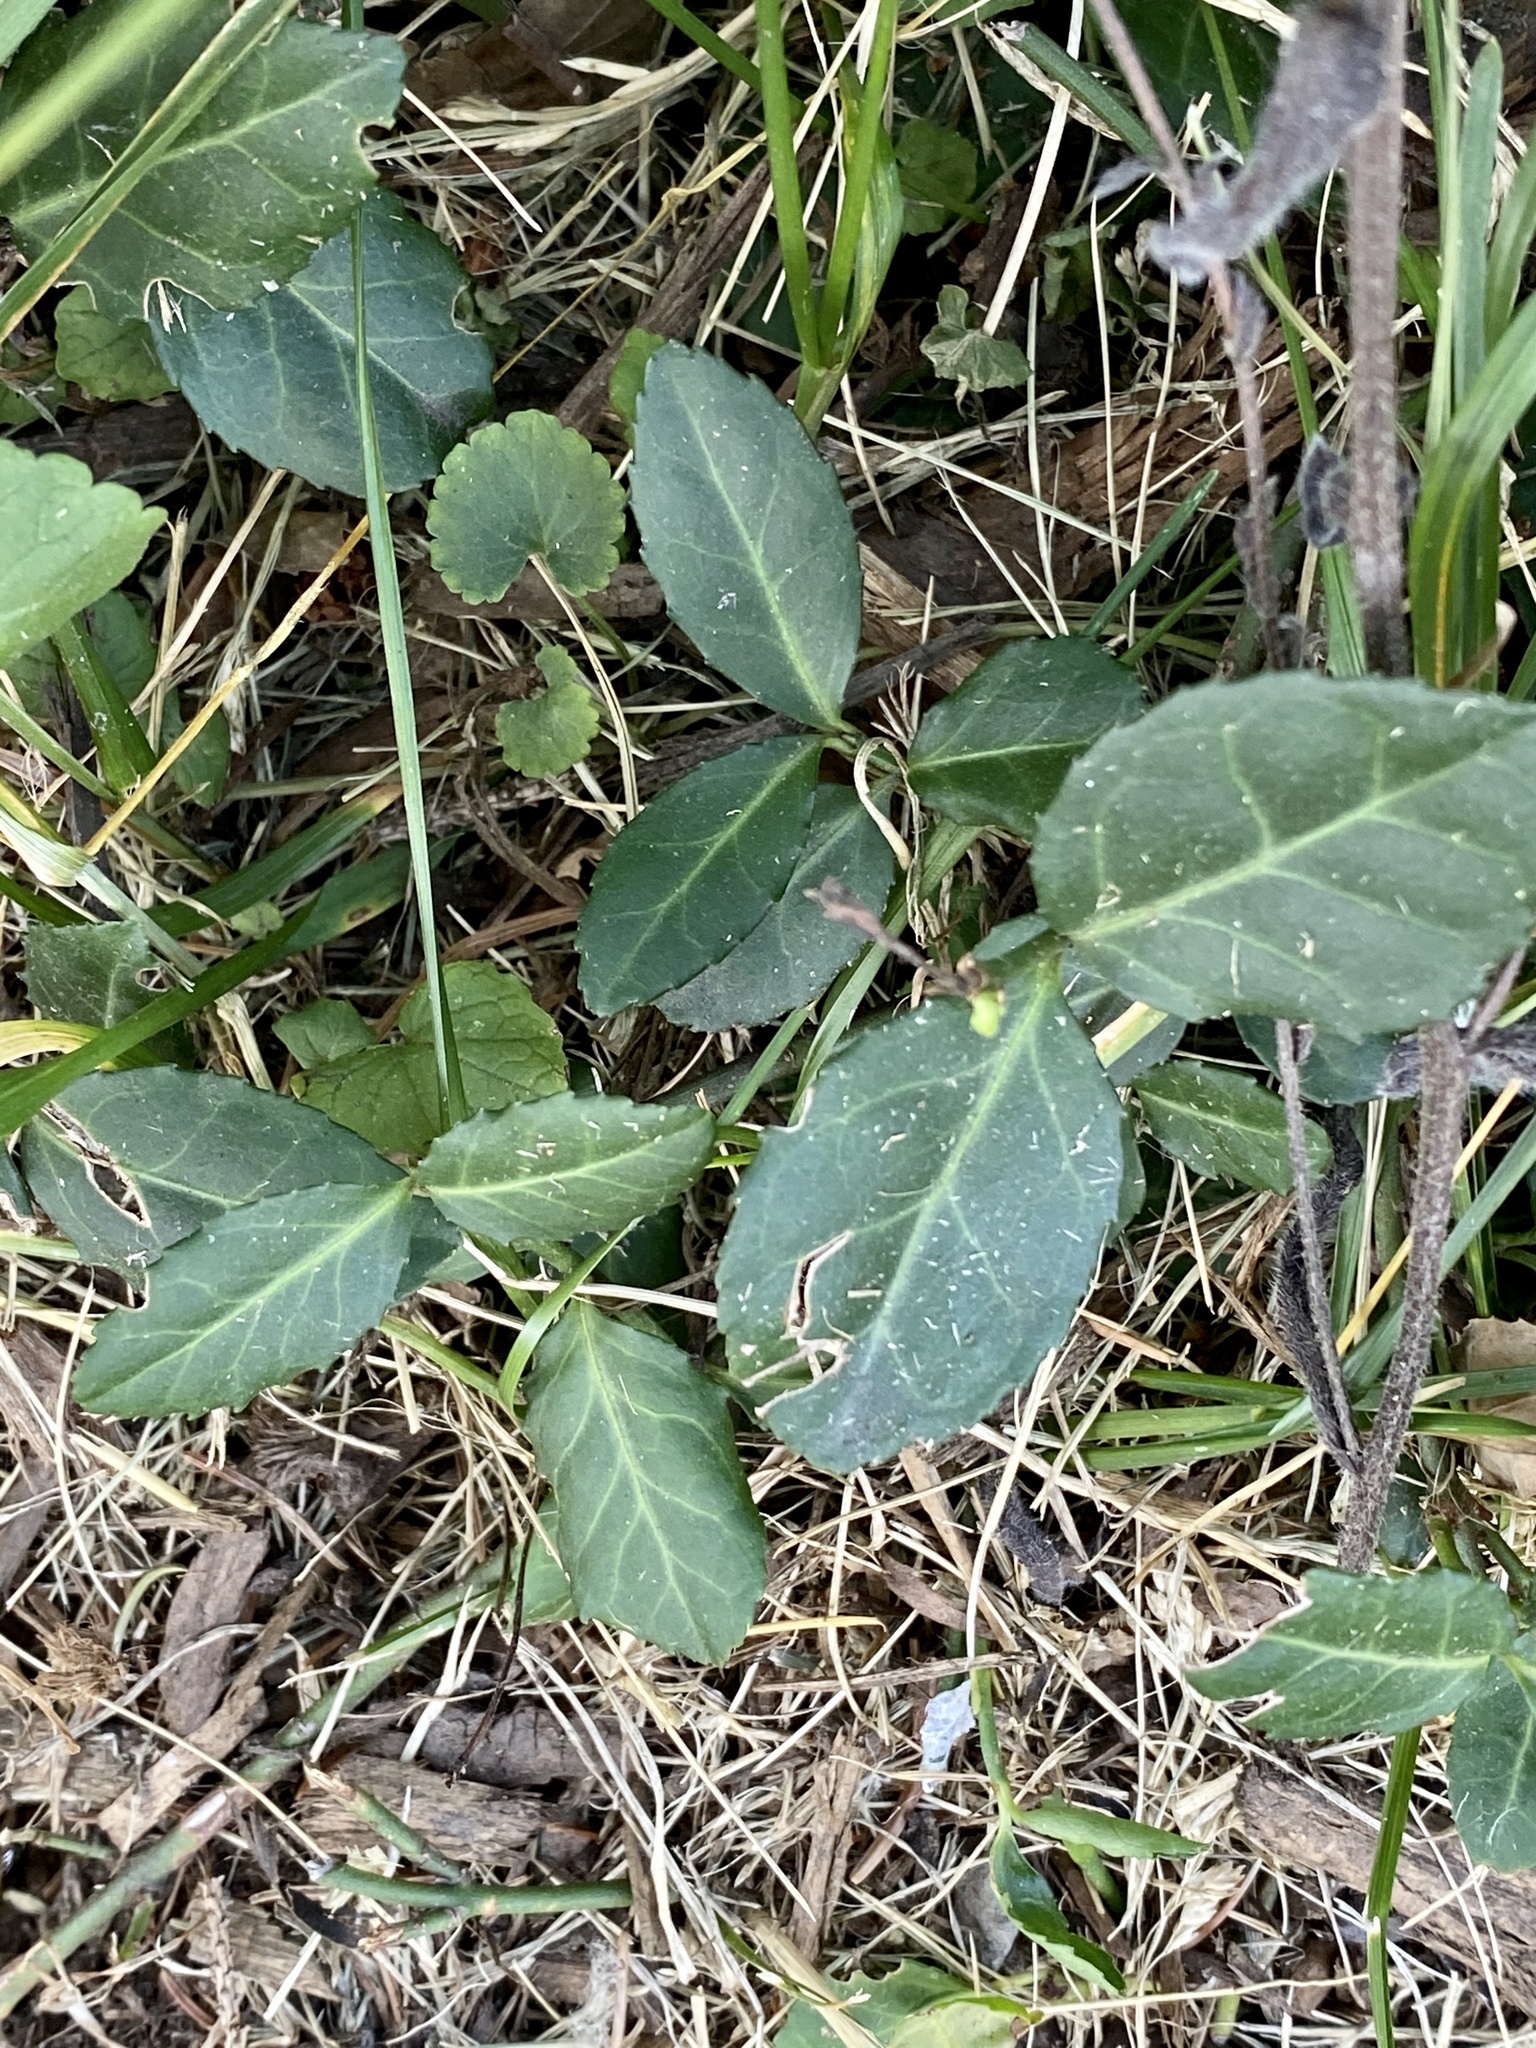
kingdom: Plantae
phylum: Tracheophyta
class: Magnoliopsida
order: Celastrales
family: Celastraceae
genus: Euonymus
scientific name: Euonymus fortunei
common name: Climbing euonymus
